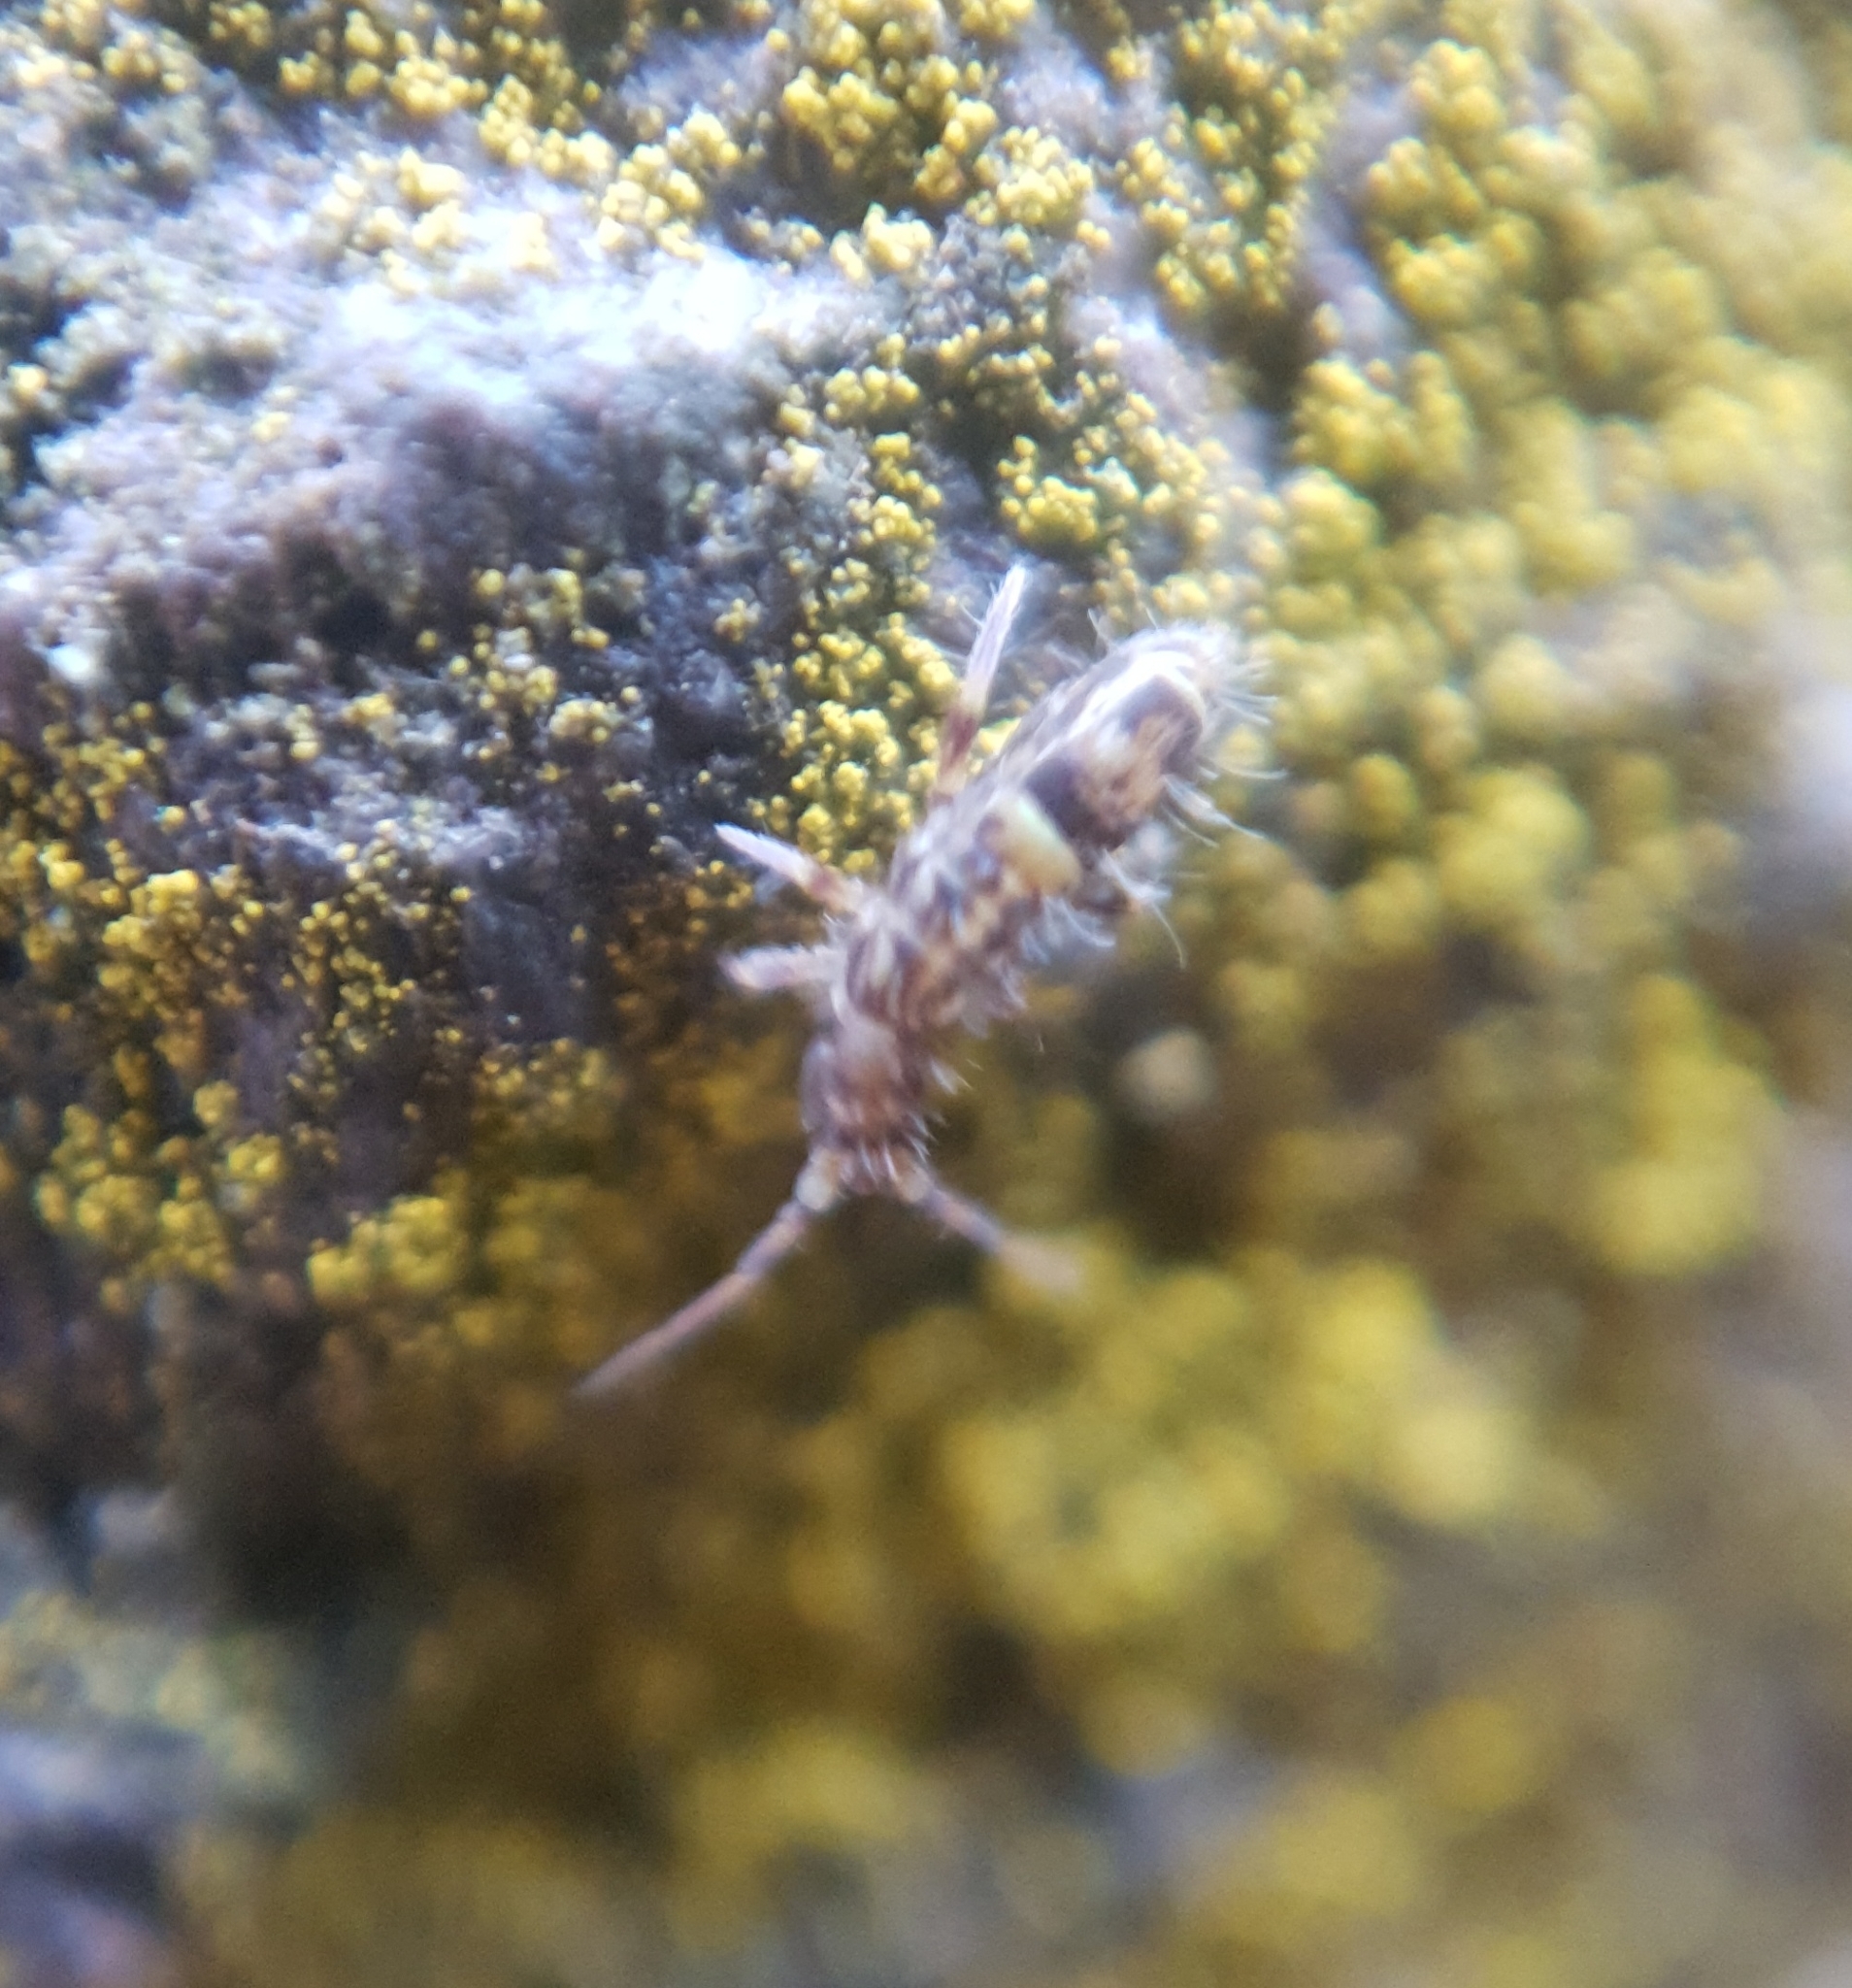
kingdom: Animalia
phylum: Arthropoda
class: Collembola
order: Entomobryomorpha
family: Orchesellidae
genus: Orchesella
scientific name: Orchesella cincta
